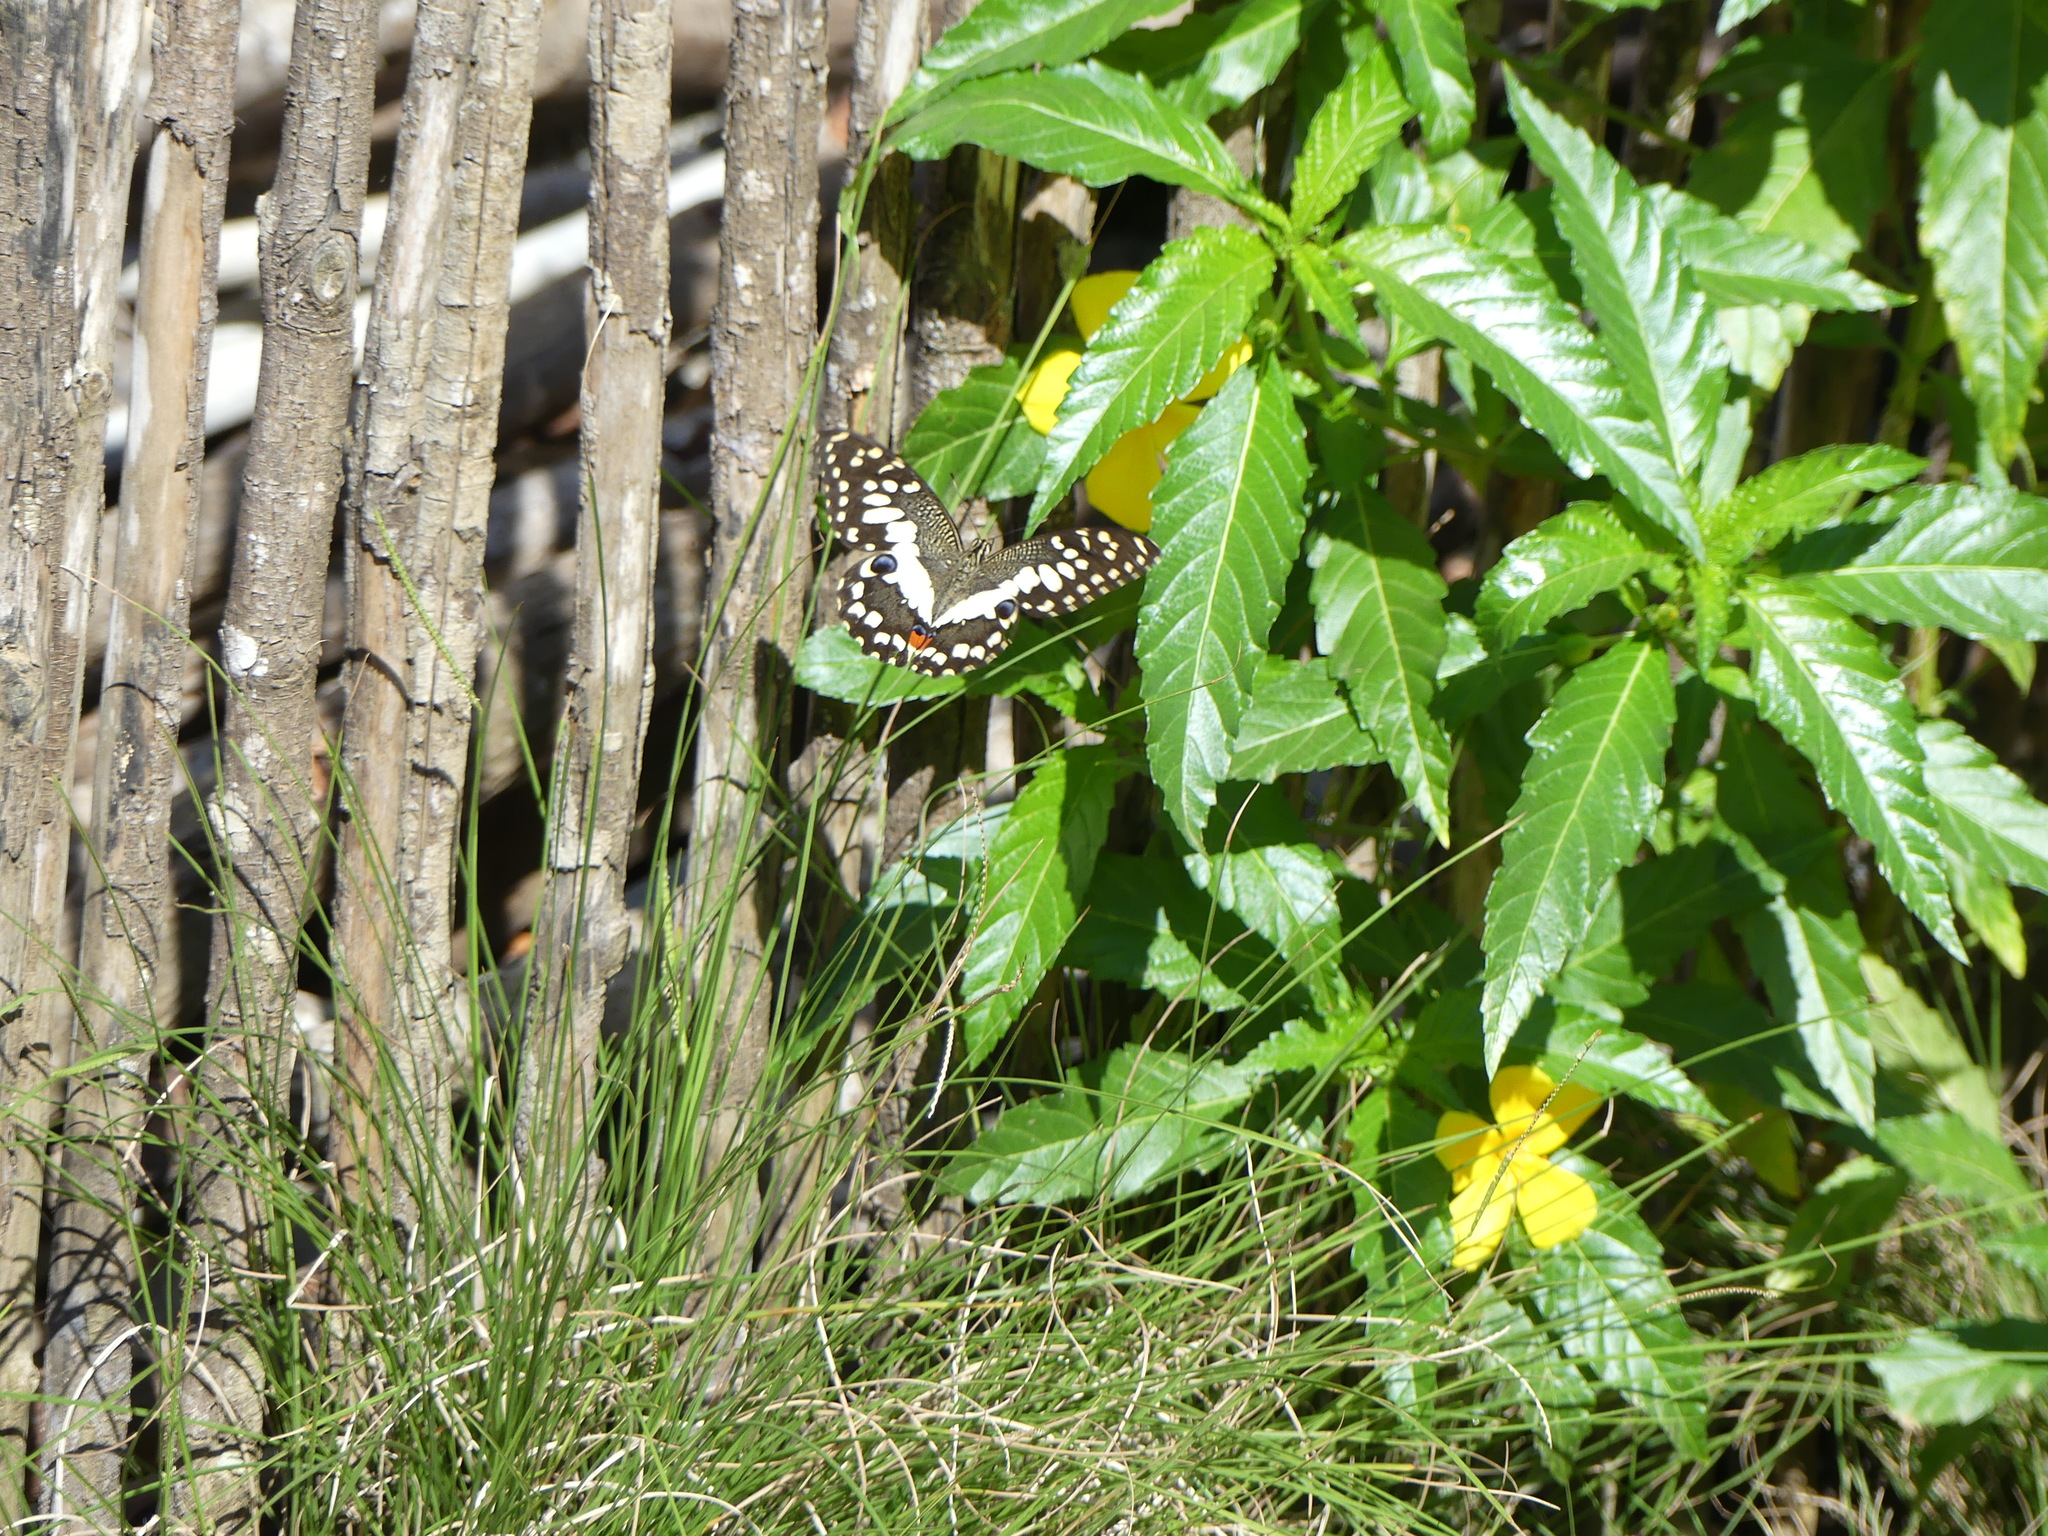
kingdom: Animalia
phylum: Arthropoda
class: Insecta
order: Lepidoptera
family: Papilionidae
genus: Papilio
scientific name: Papilio demoleus
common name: Lime butterfly
